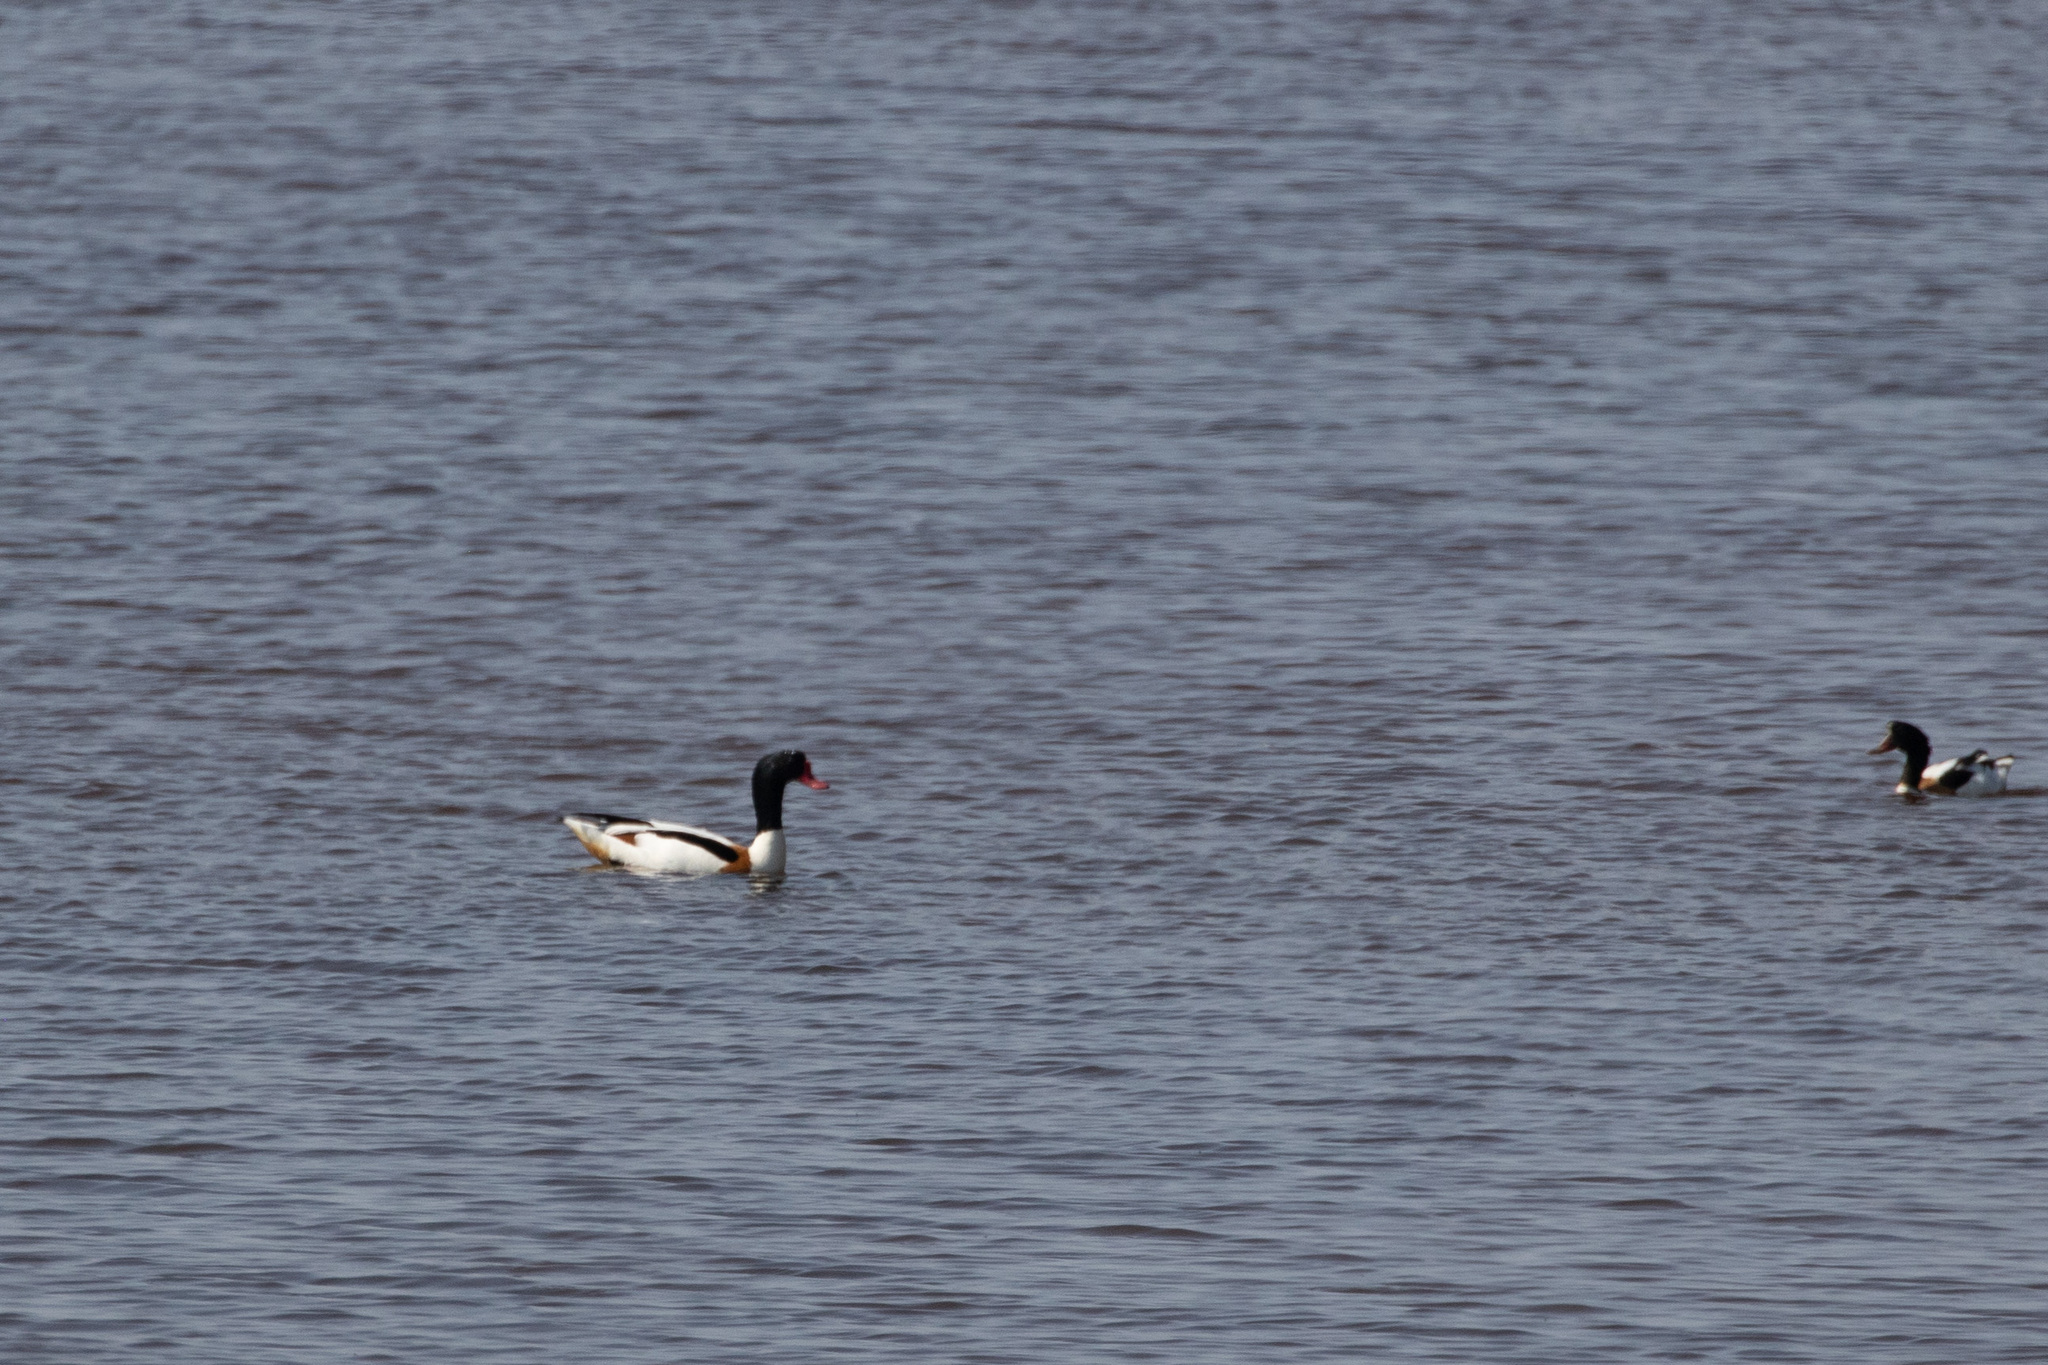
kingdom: Animalia
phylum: Chordata
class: Aves
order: Anseriformes
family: Anatidae
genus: Tadorna
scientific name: Tadorna tadorna
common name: Common shelduck
